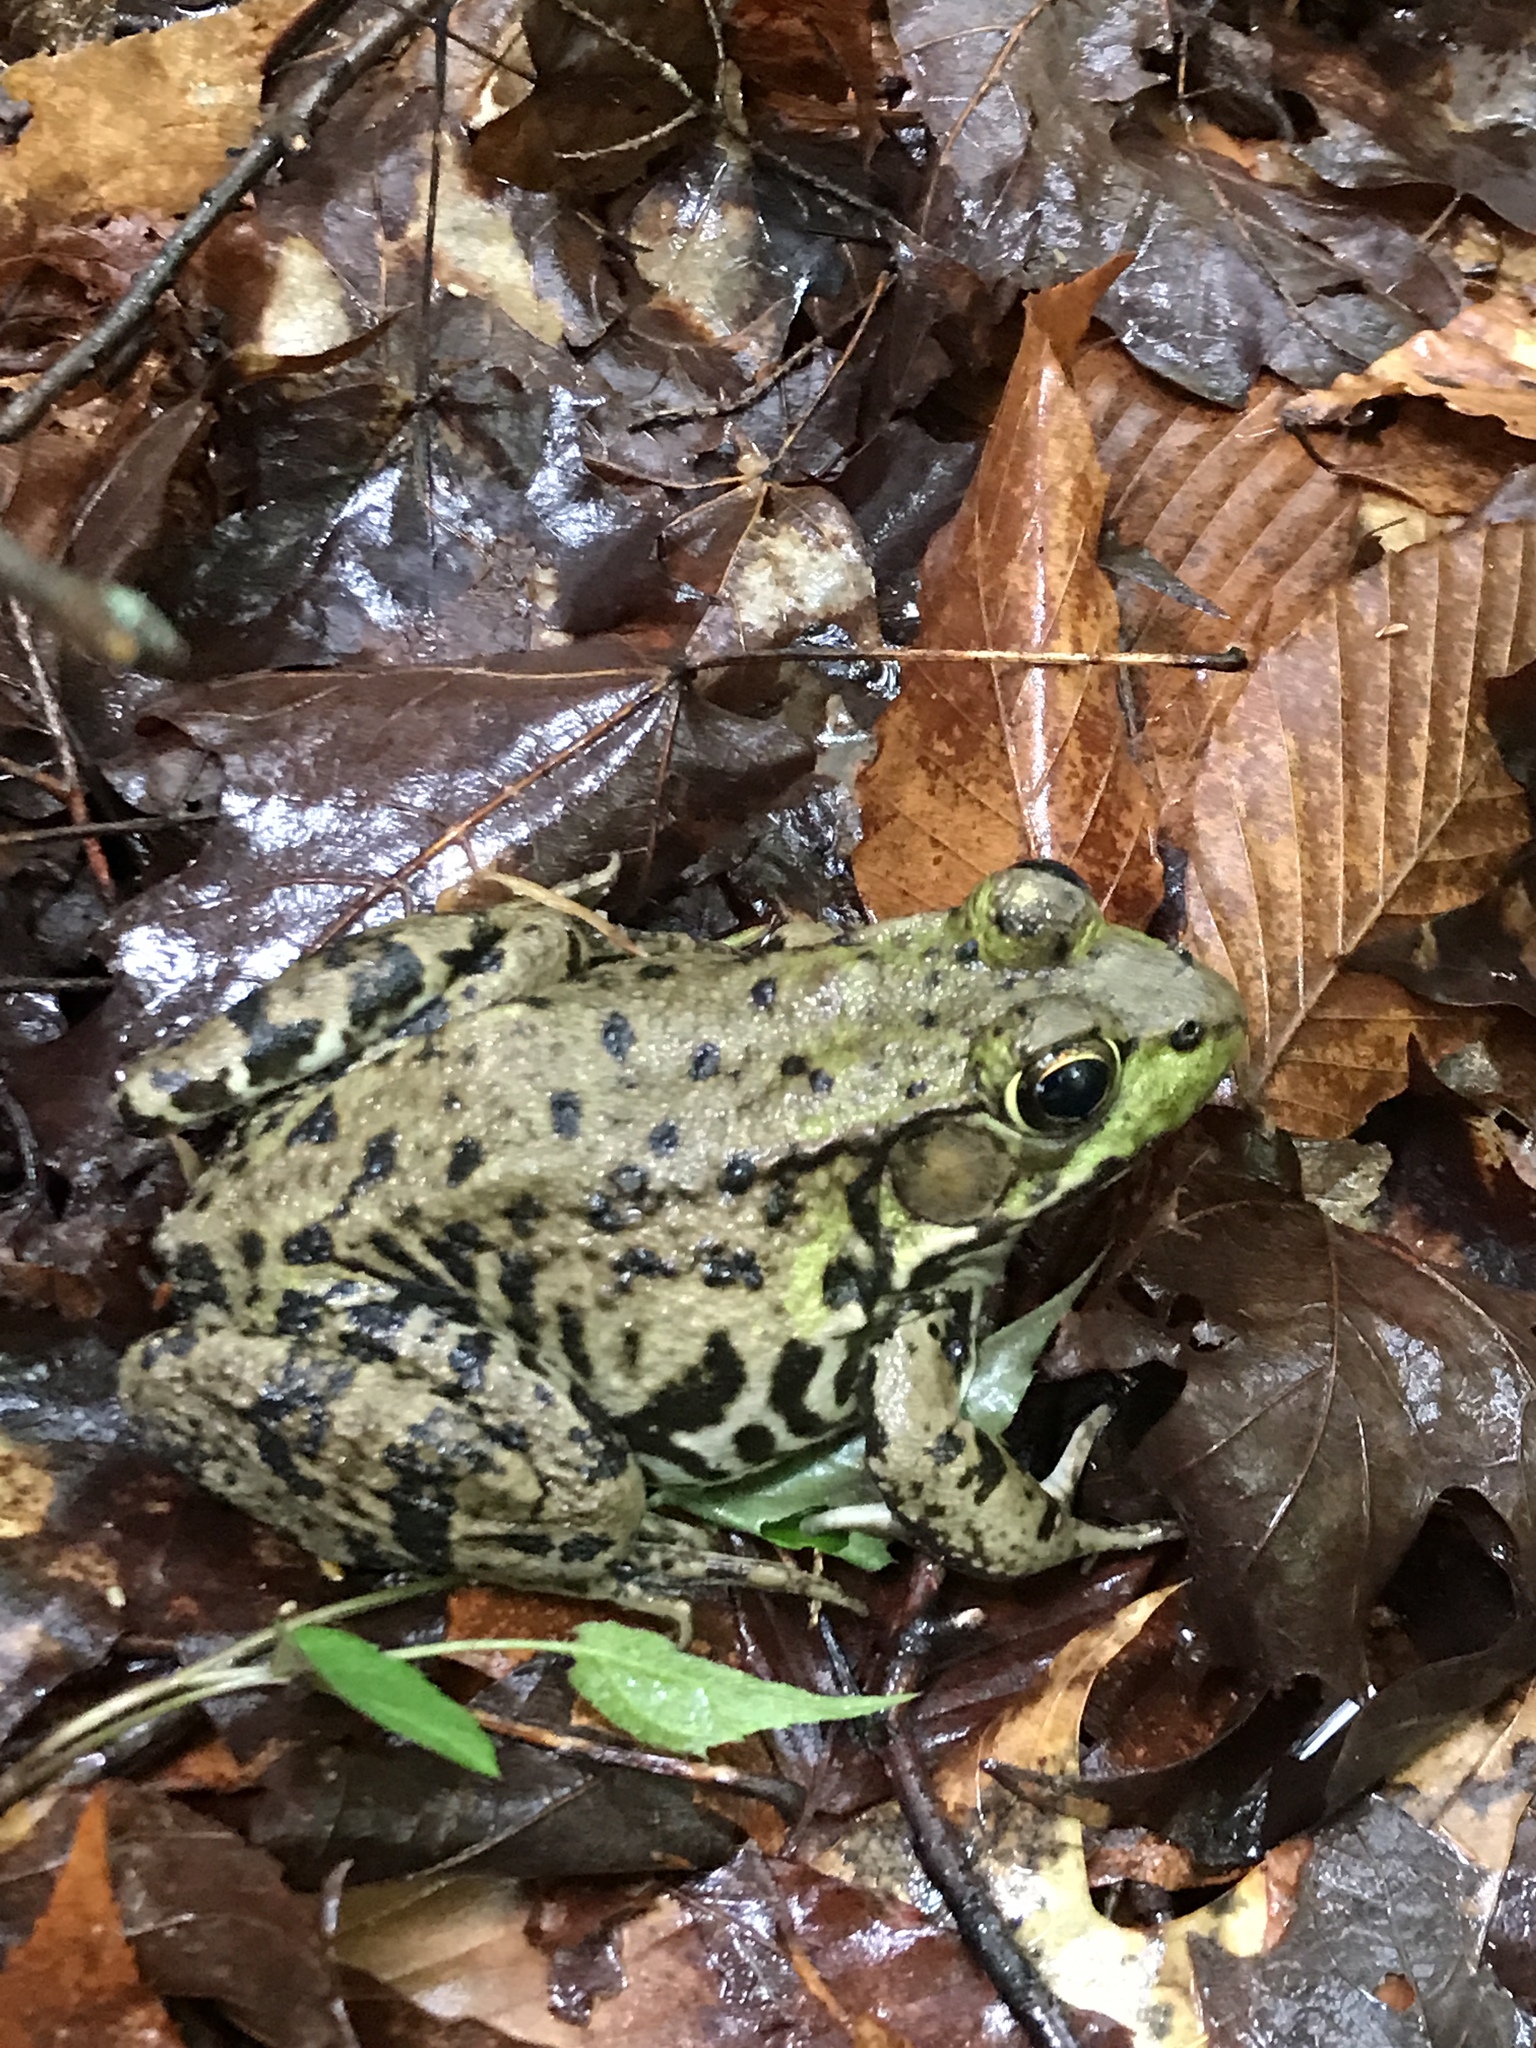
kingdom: Animalia
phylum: Chordata
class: Amphibia
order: Anura
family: Ranidae
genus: Lithobates
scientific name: Lithobates clamitans
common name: Green frog
